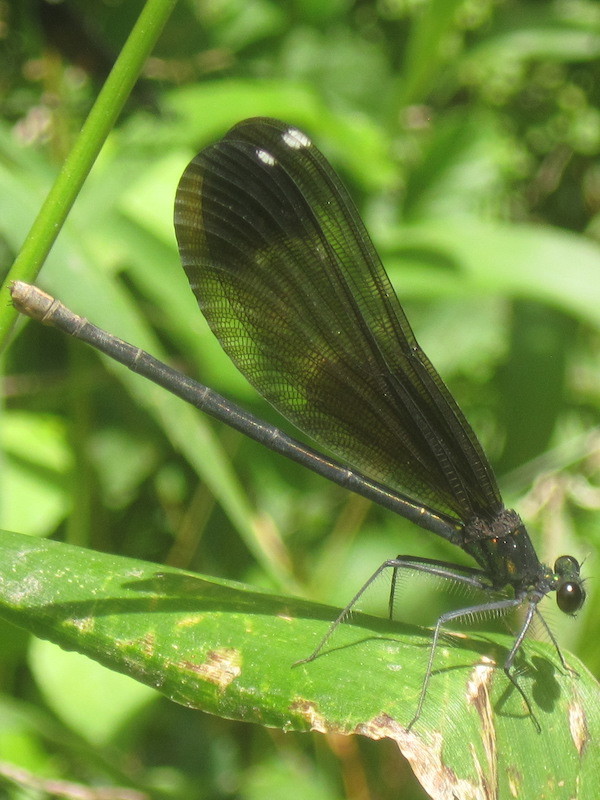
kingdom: Animalia
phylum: Arthropoda
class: Insecta
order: Odonata
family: Calopterygidae
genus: Calopteryx
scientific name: Calopteryx maculata
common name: Ebony jewelwing
